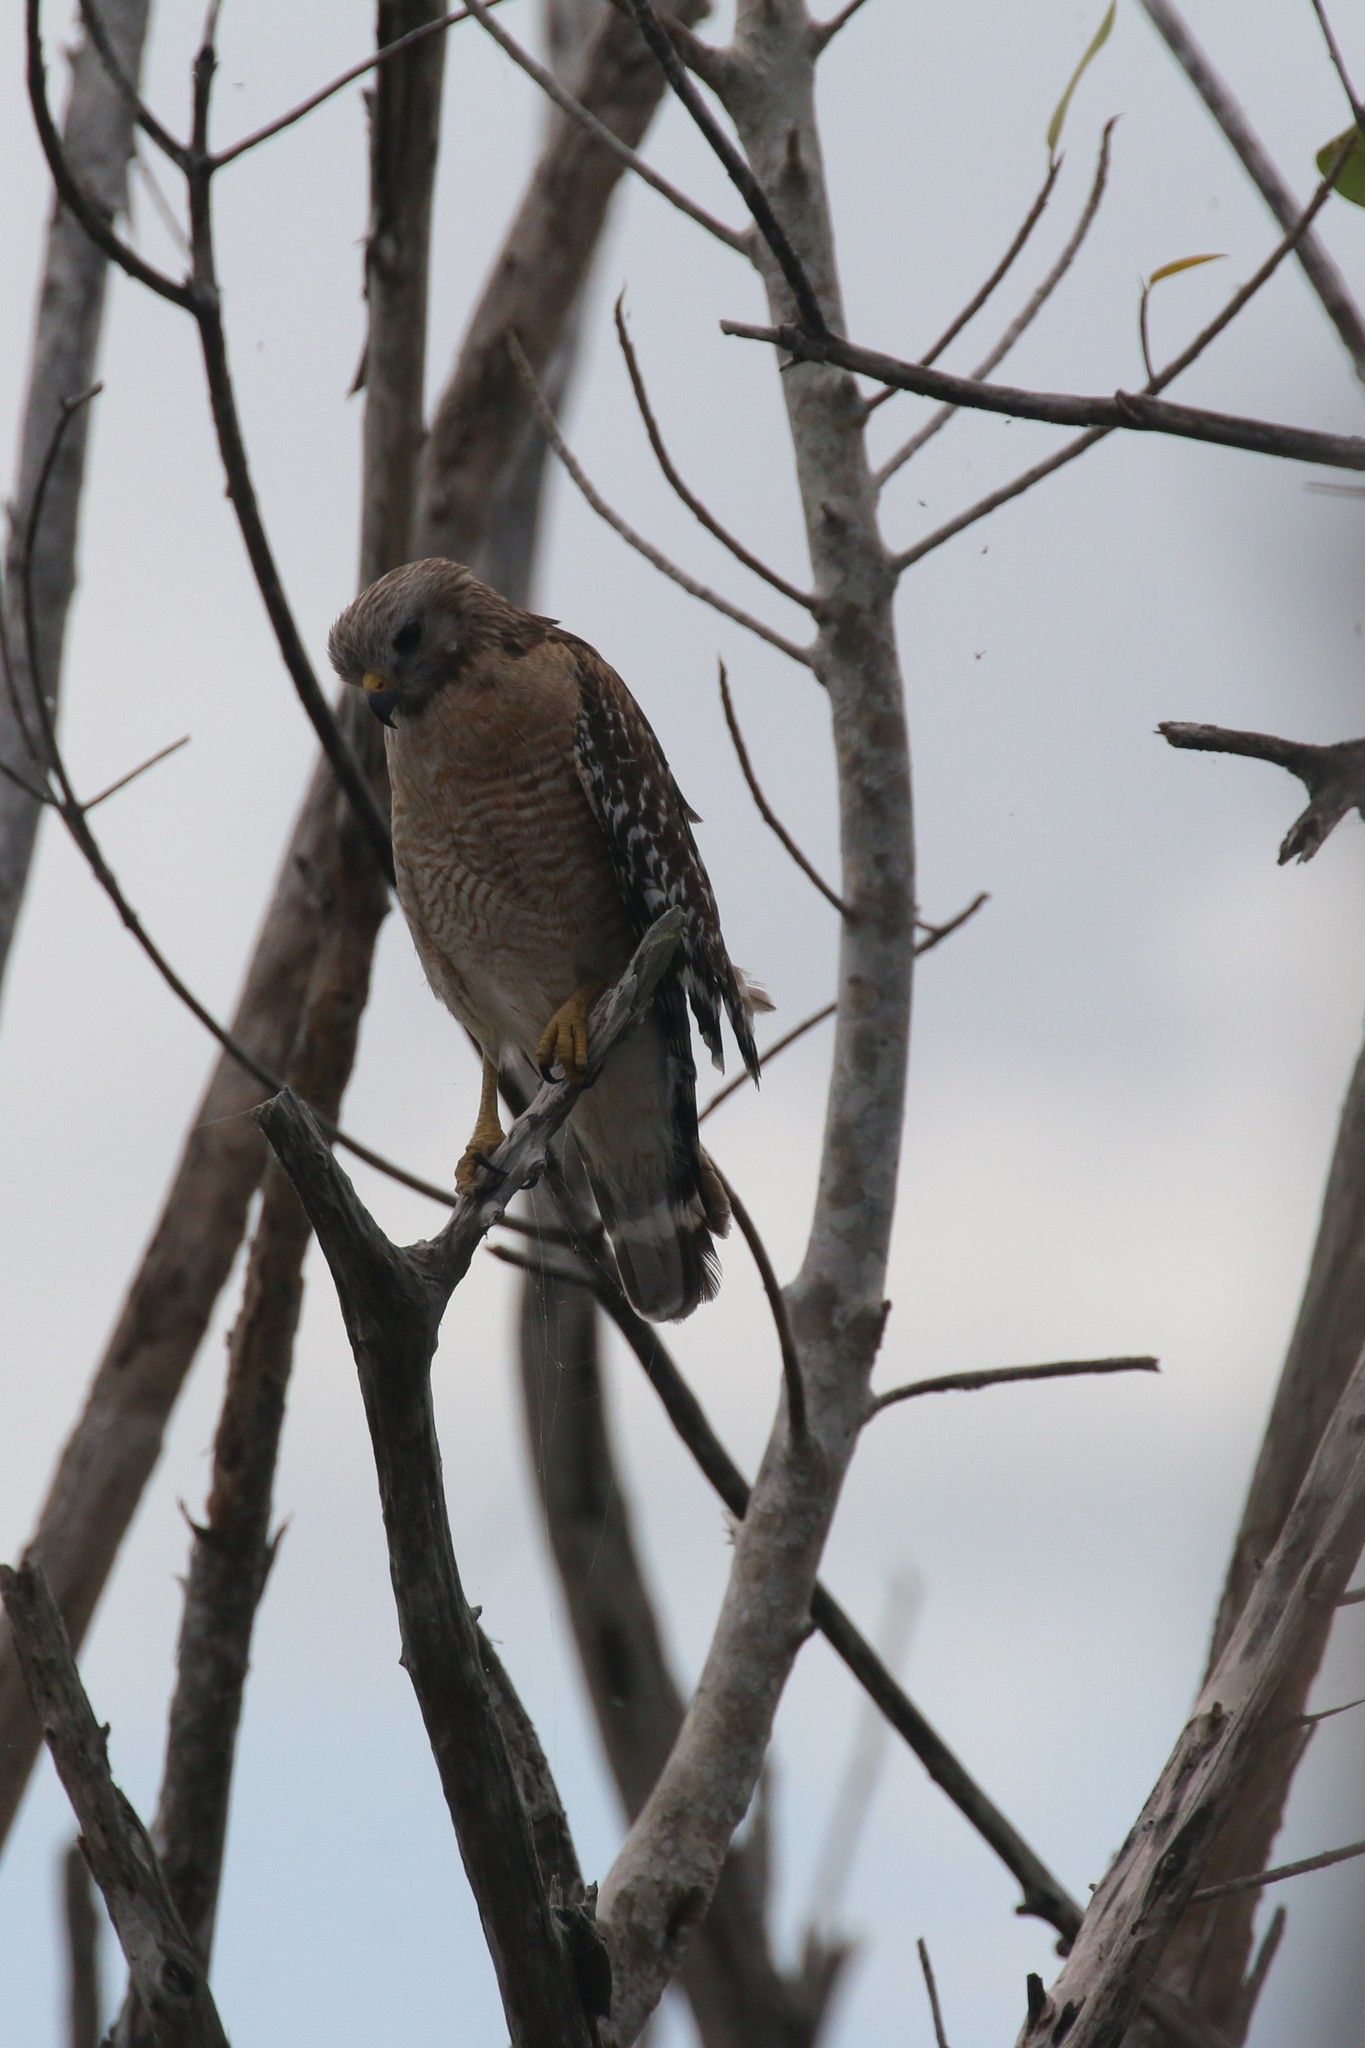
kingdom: Animalia
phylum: Chordata
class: Aves
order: Accipitriformes
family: Accipitridae
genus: Buteo
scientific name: Buteo lineatus
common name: Red-shouldered hawk
